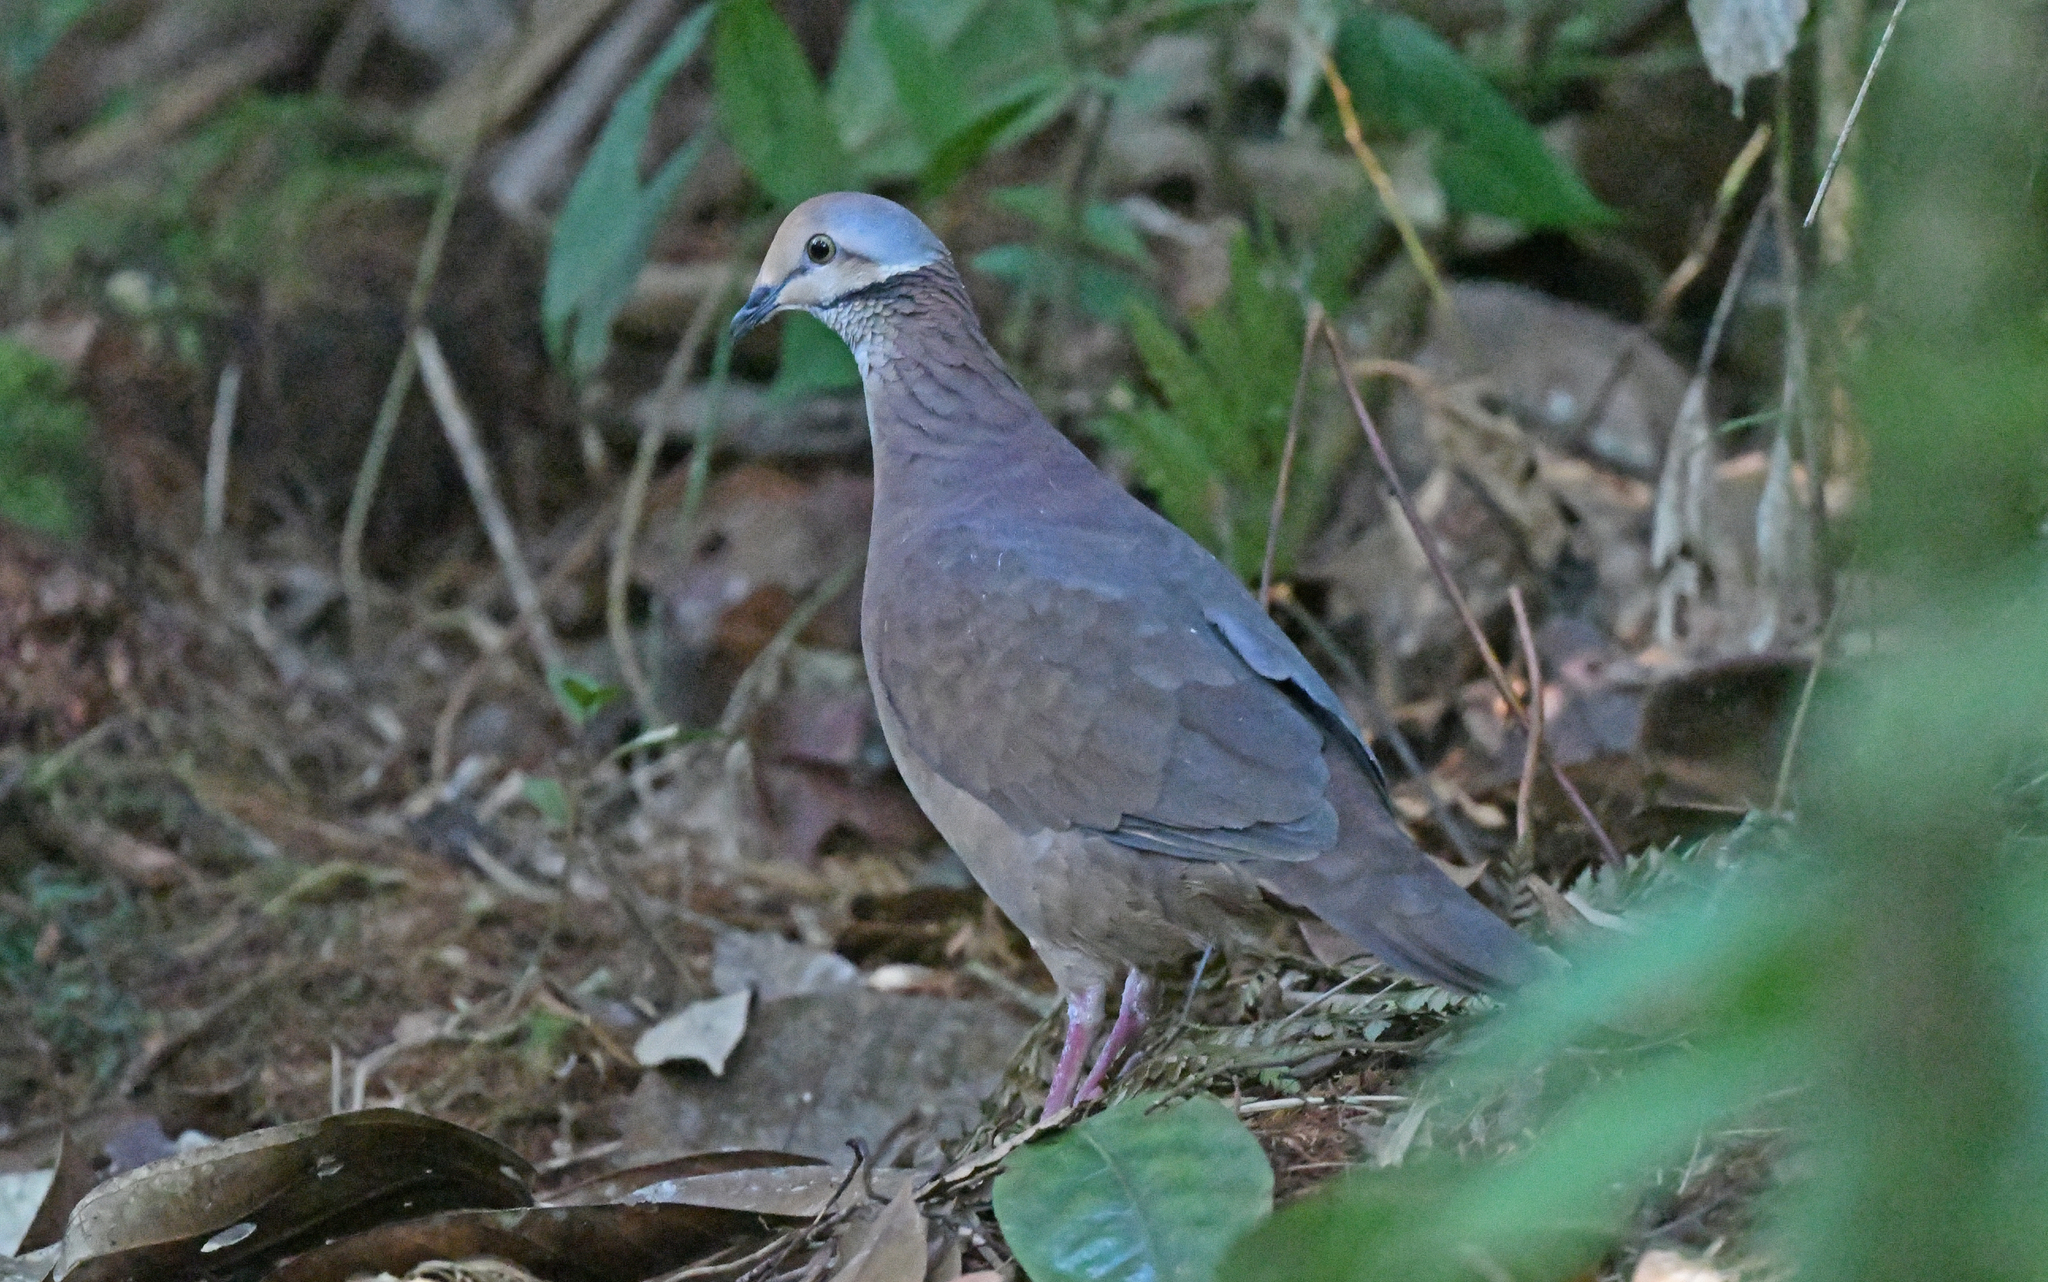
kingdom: Animalia
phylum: Chordata
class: Aves
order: Columbiformes
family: Columbidae
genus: Zentrygon
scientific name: Zentrygon linearis
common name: Lined quail-dove
